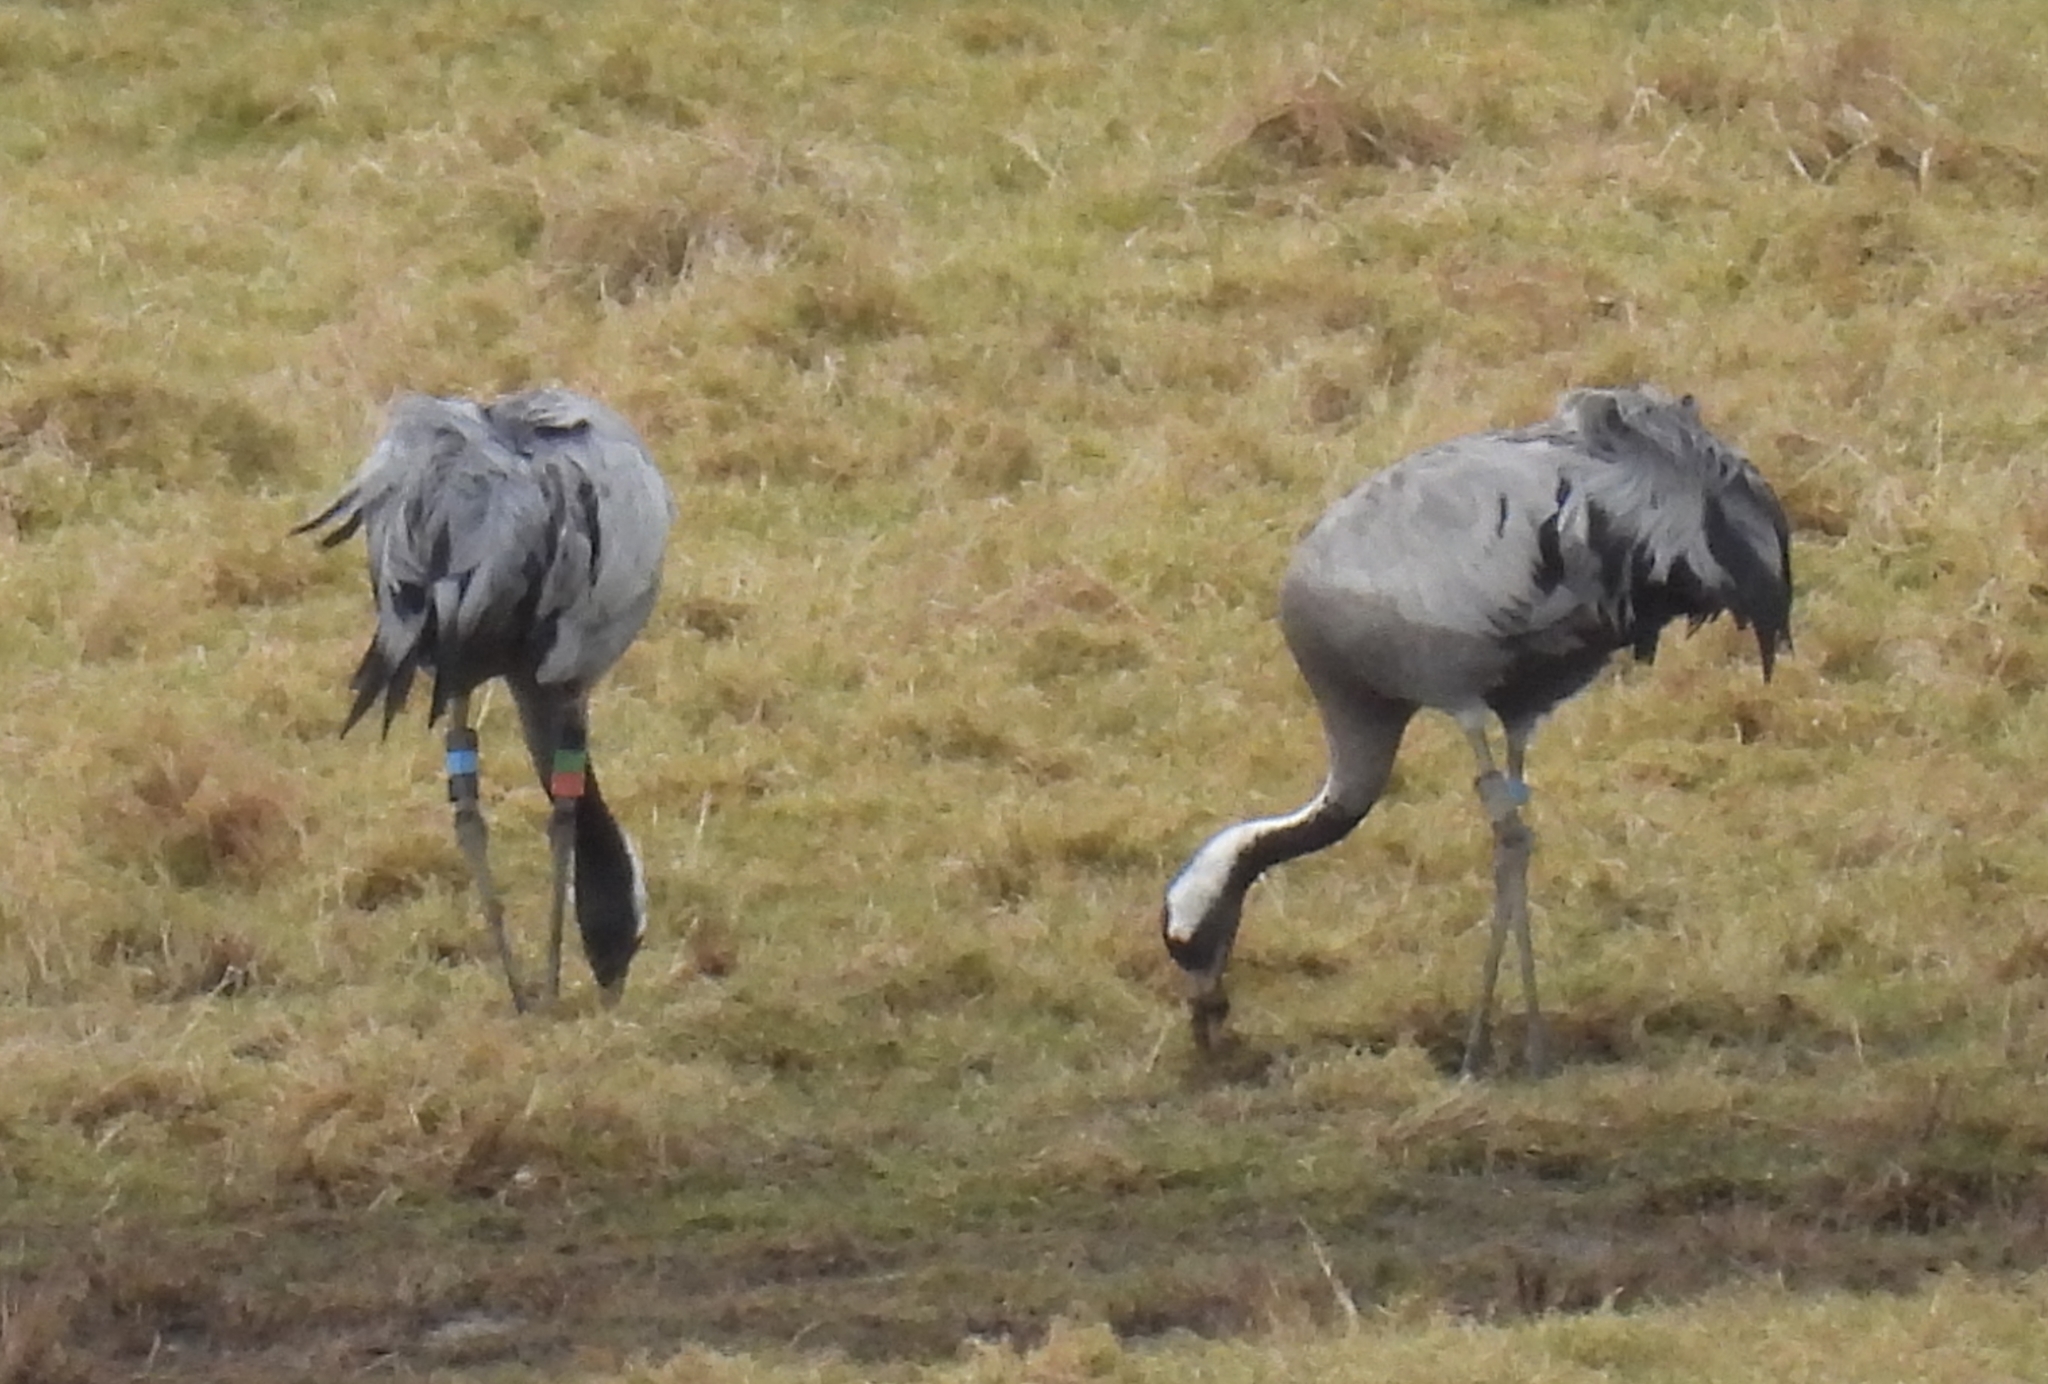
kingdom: Animalia
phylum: Chordata
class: Aves
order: Gruiformes
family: Gruidae
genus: Grus
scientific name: Grus grus
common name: Common crane
